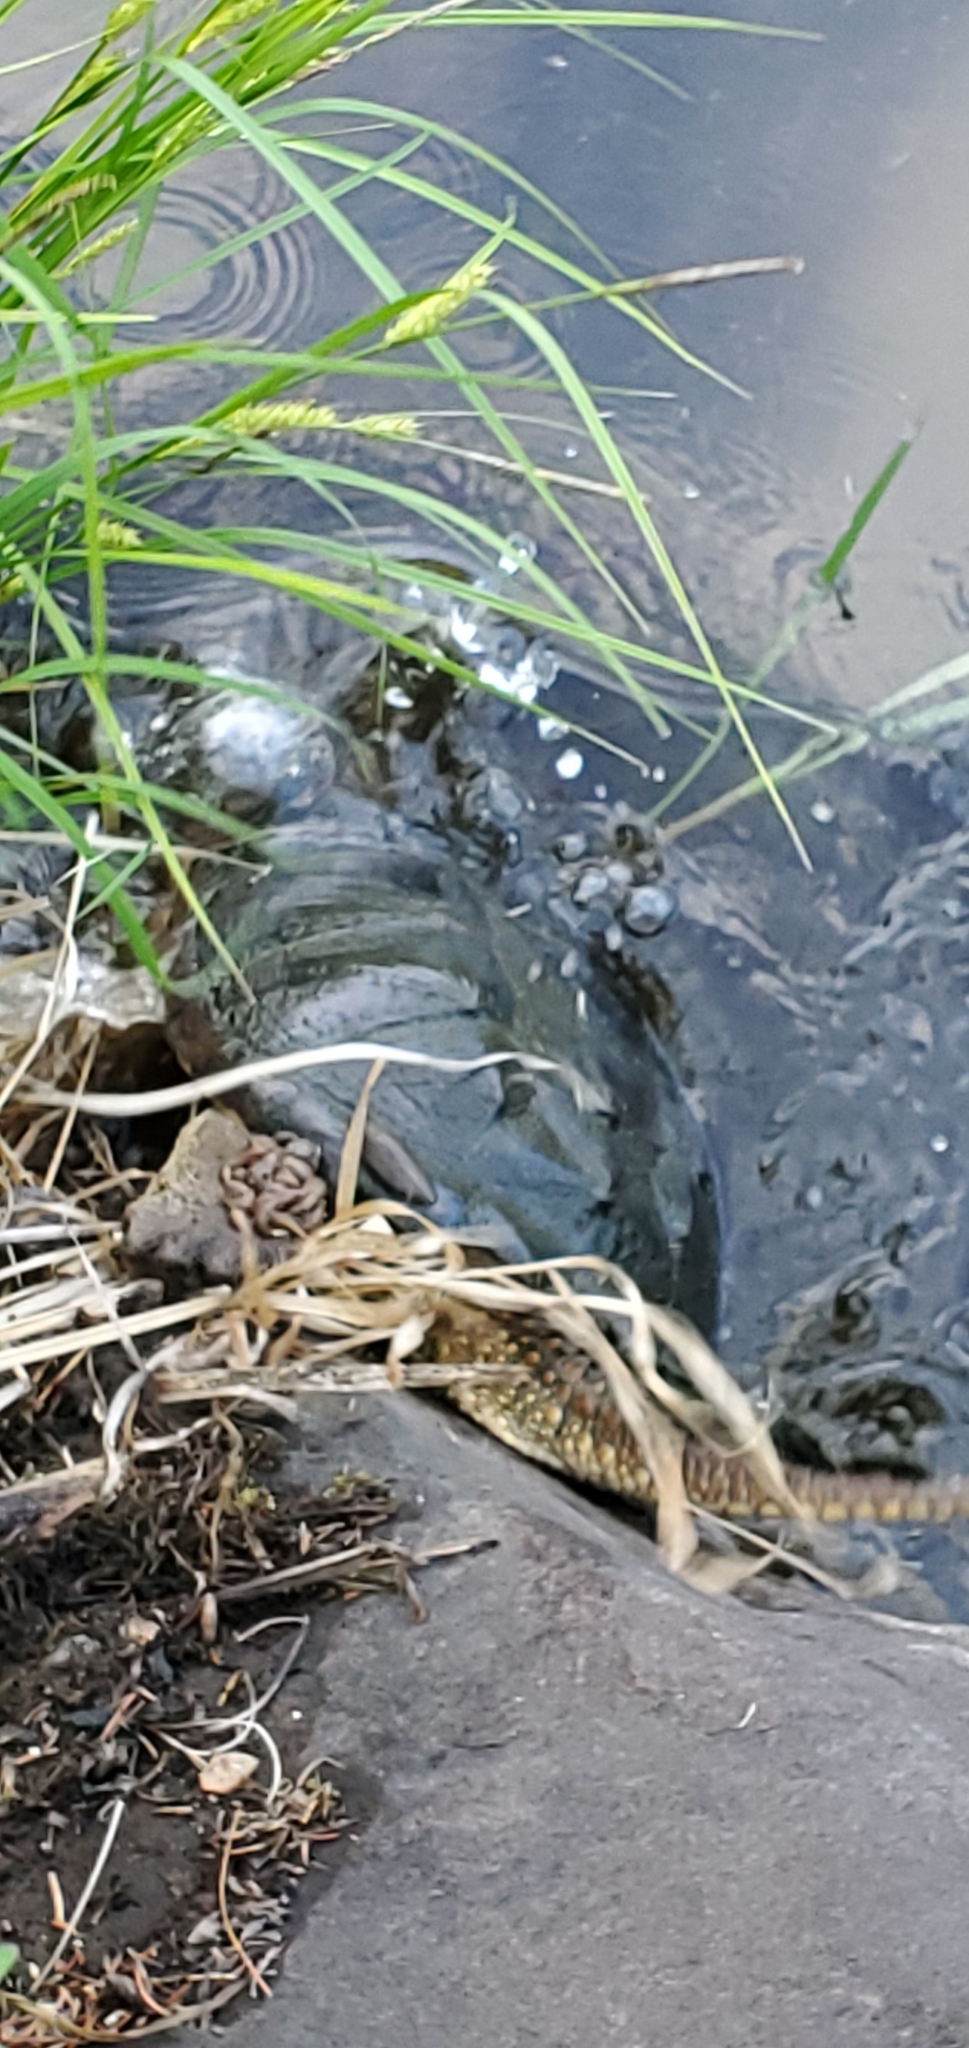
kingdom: Animalia
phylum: Chordata
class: Testudines
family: Chelydridae
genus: Chelydra
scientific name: Chelydra serpentina
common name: Common snapping turtle
